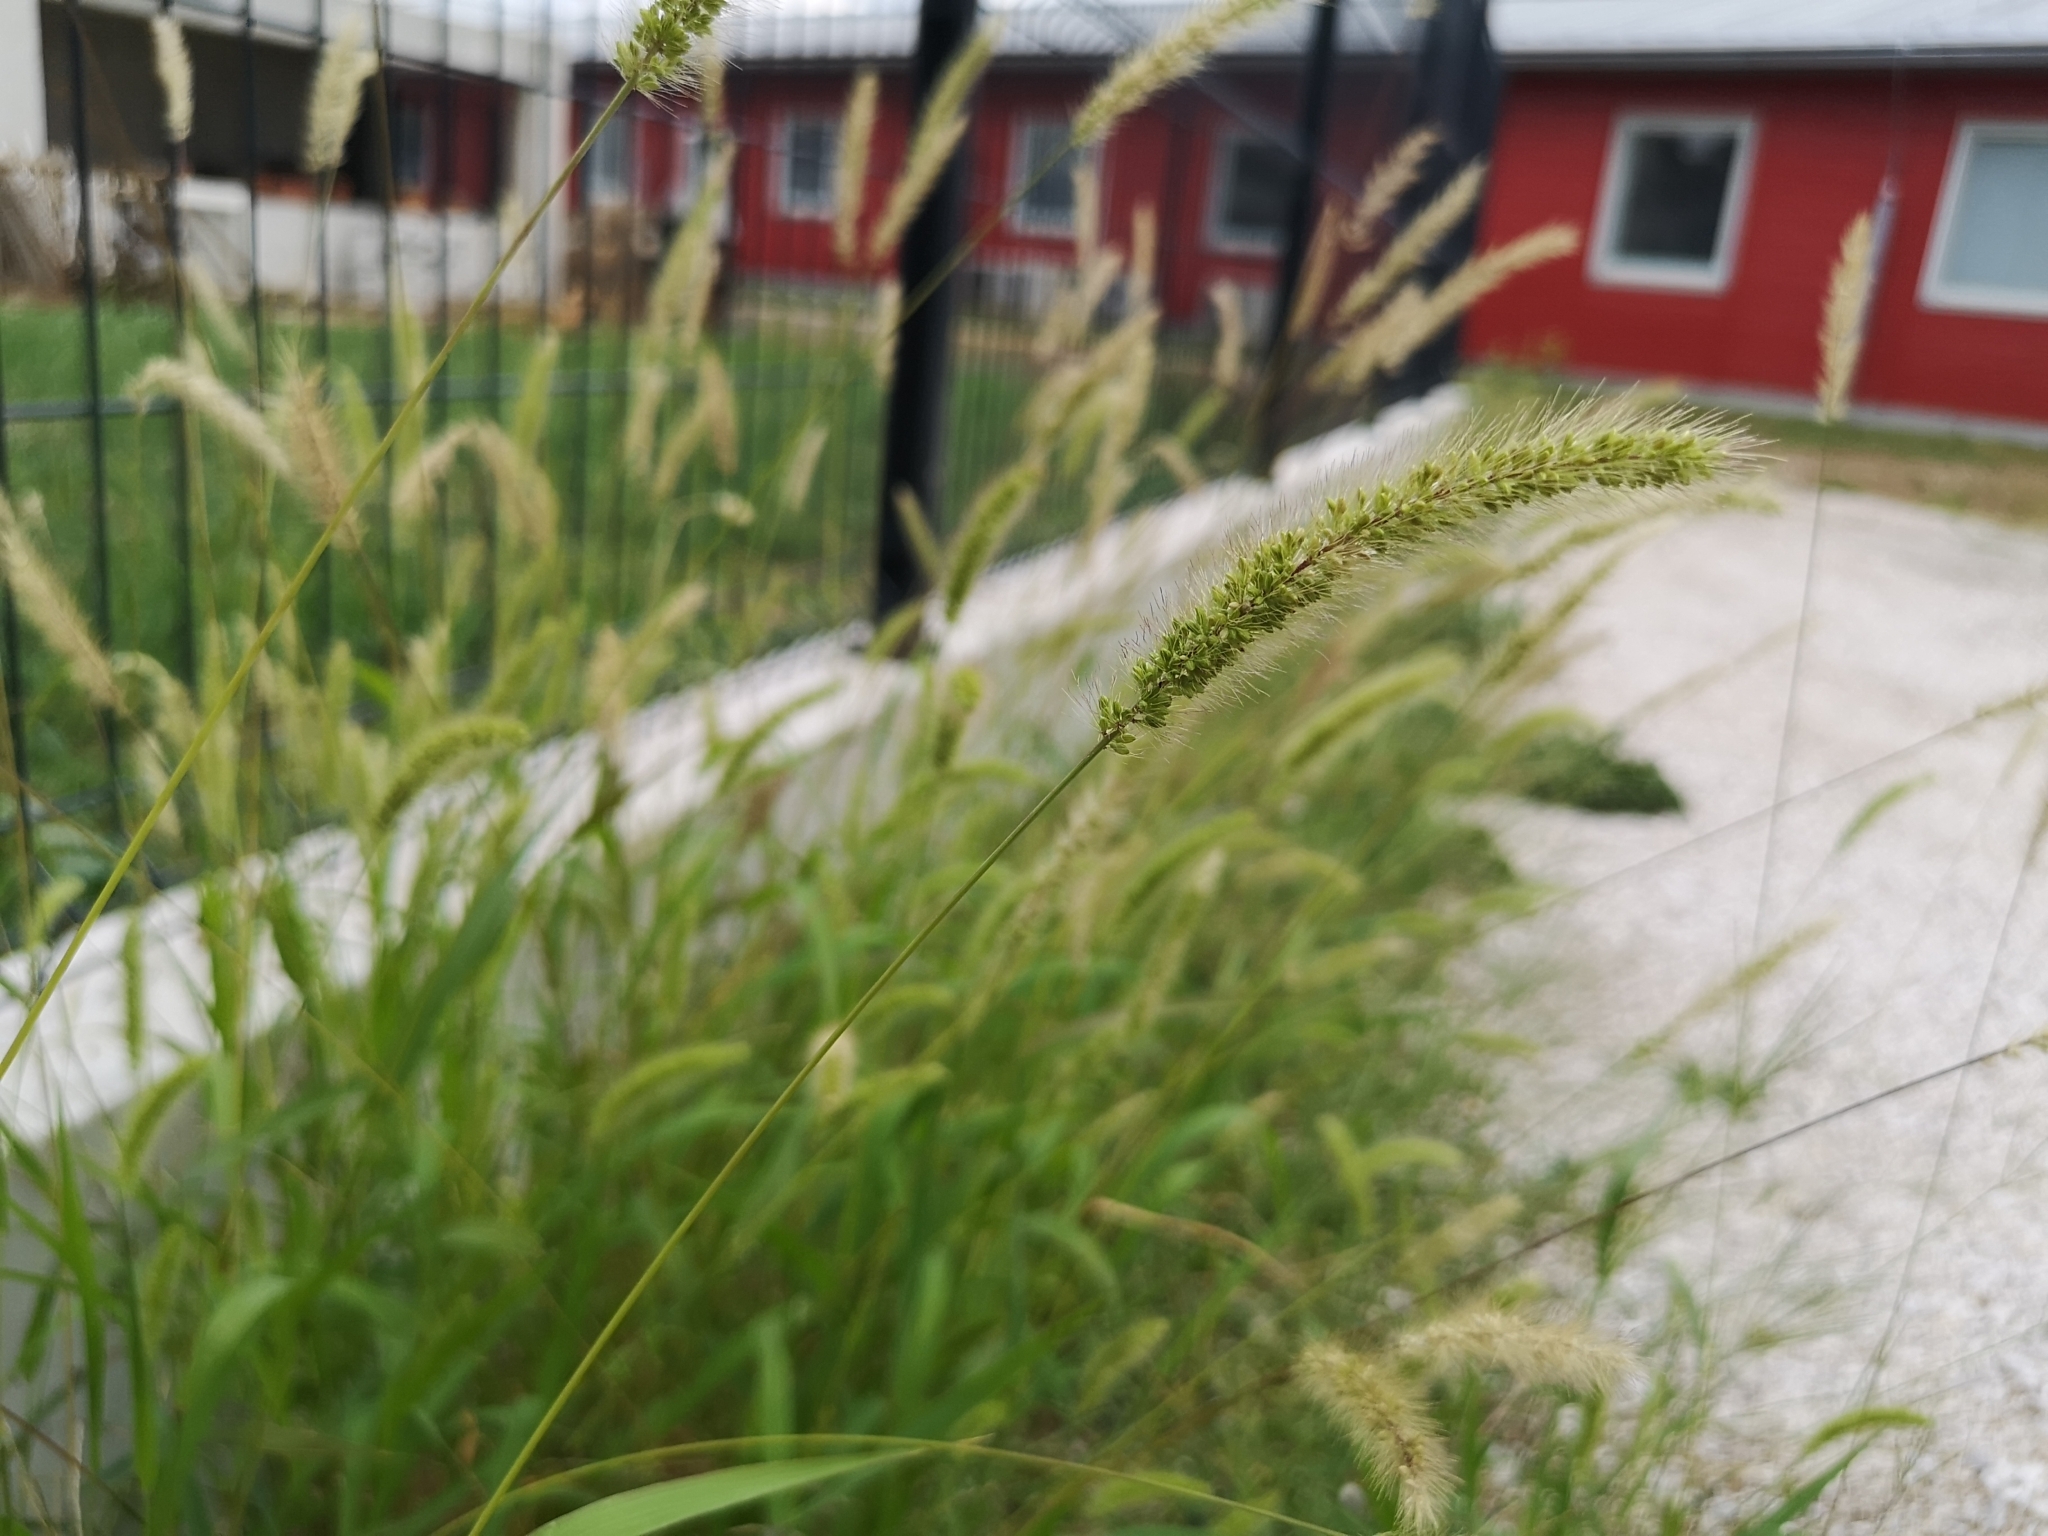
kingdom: Plantae
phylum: Tracheophyta
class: Liliopsida
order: Poales
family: Poaceae
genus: Setaria
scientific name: Setaria viridis
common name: Green bristlegrass
